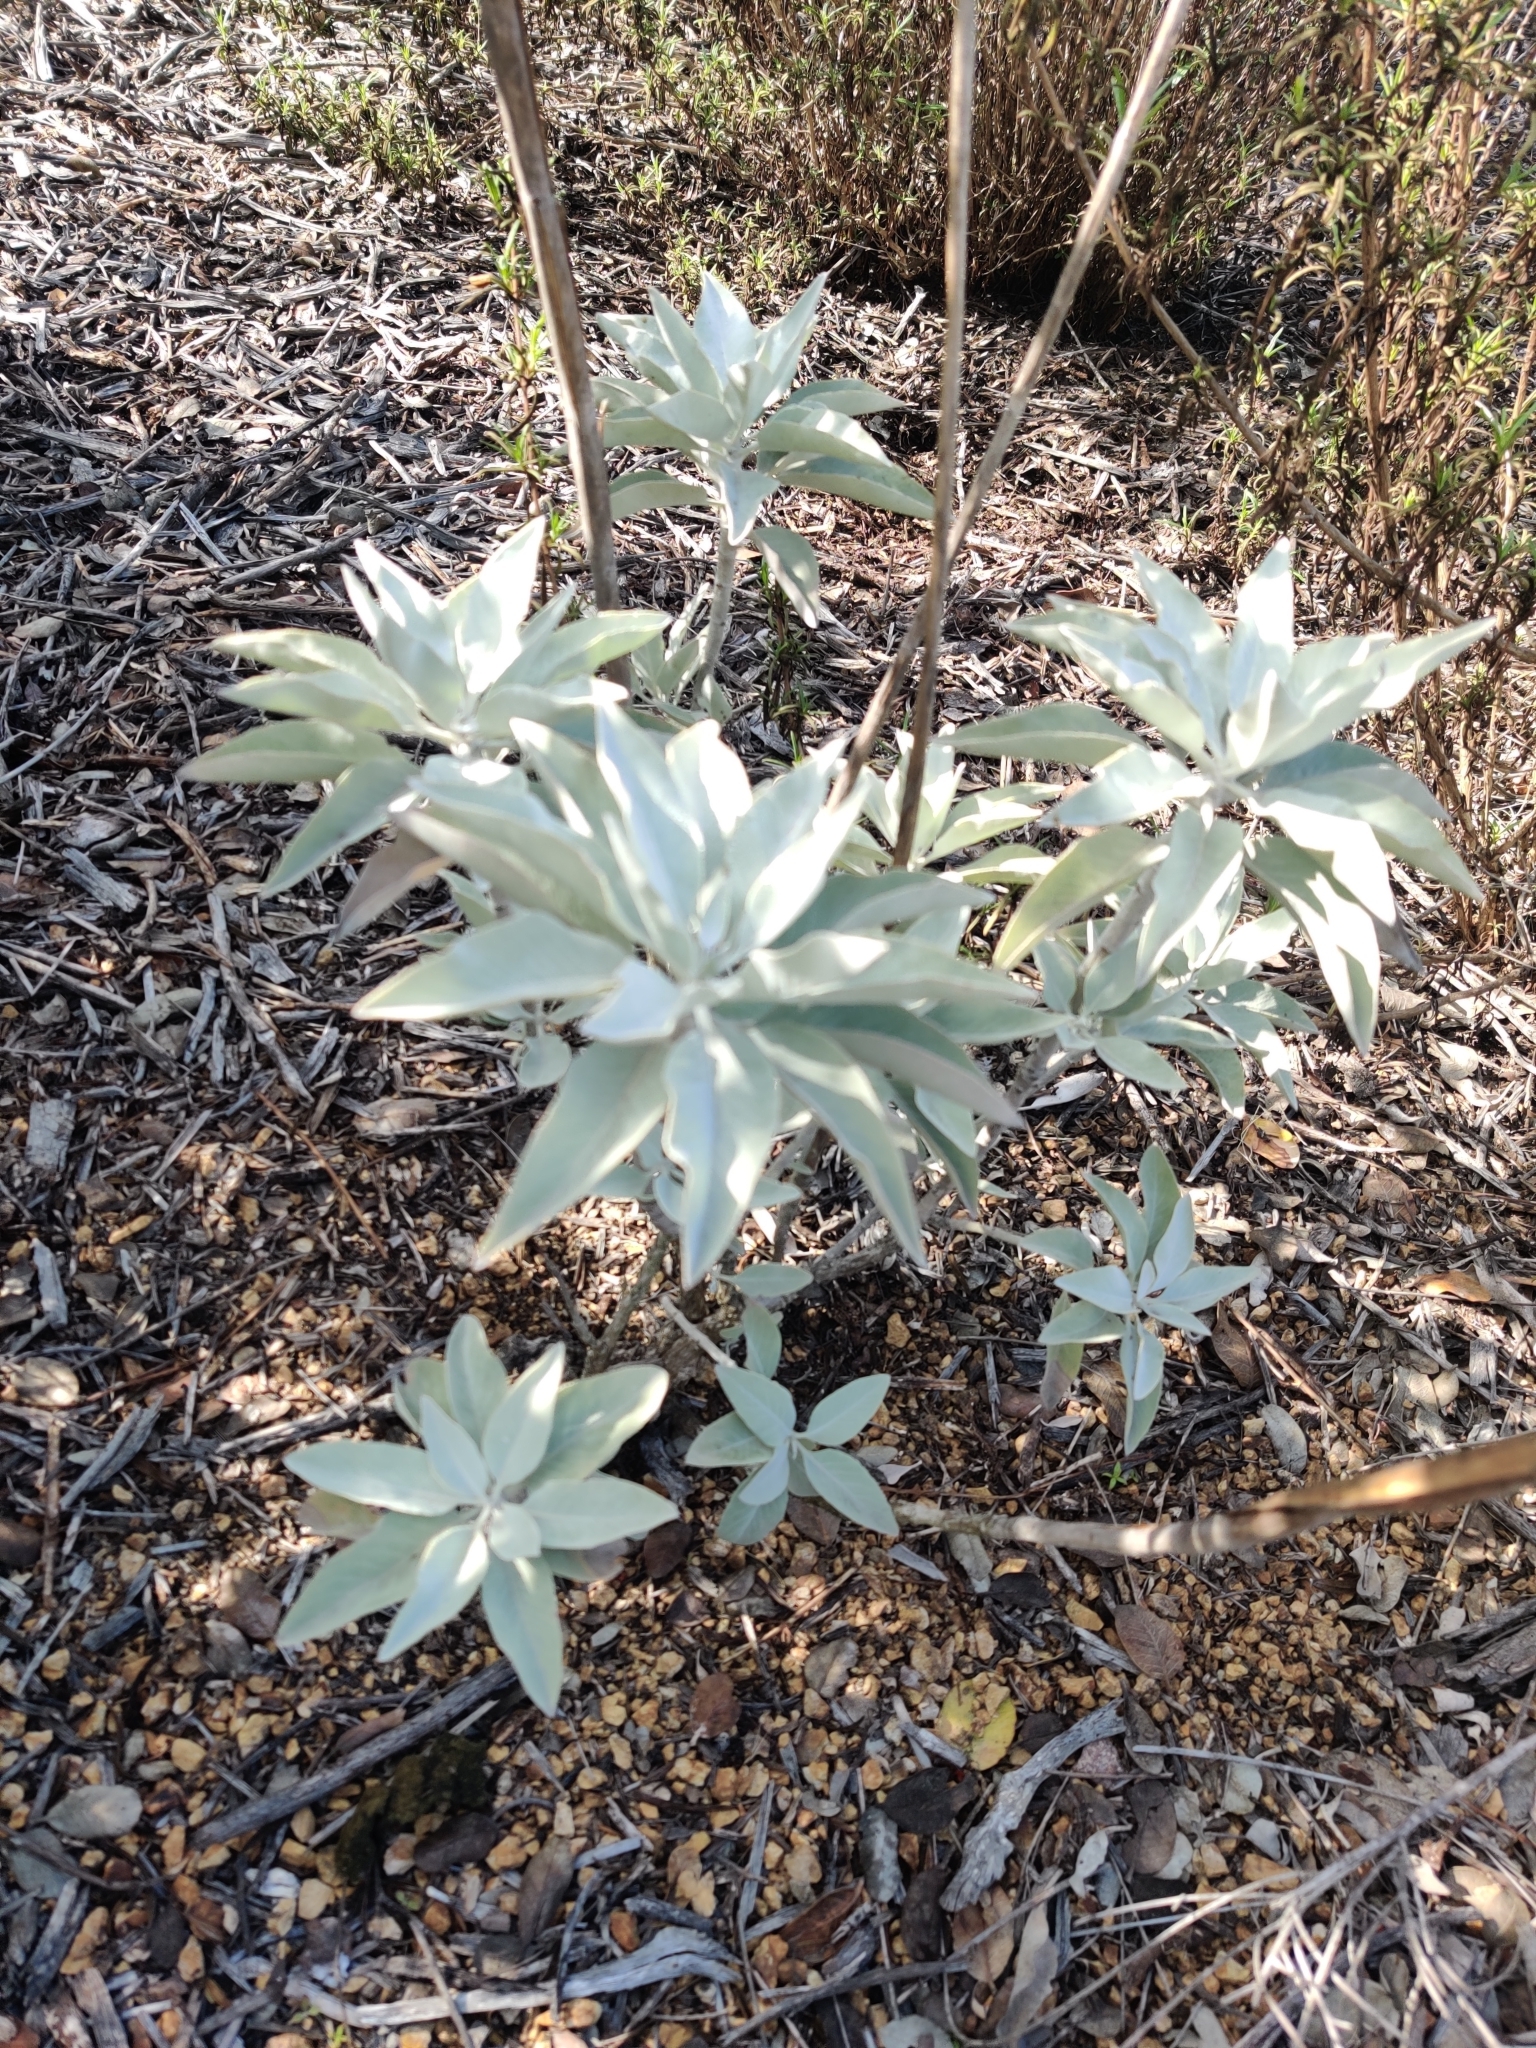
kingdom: Plantae
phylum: Tracheophyta
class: Magnoliopsida
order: Lamiales
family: Lamiaceae
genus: Salvia
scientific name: Salvia apiana
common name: White sage
